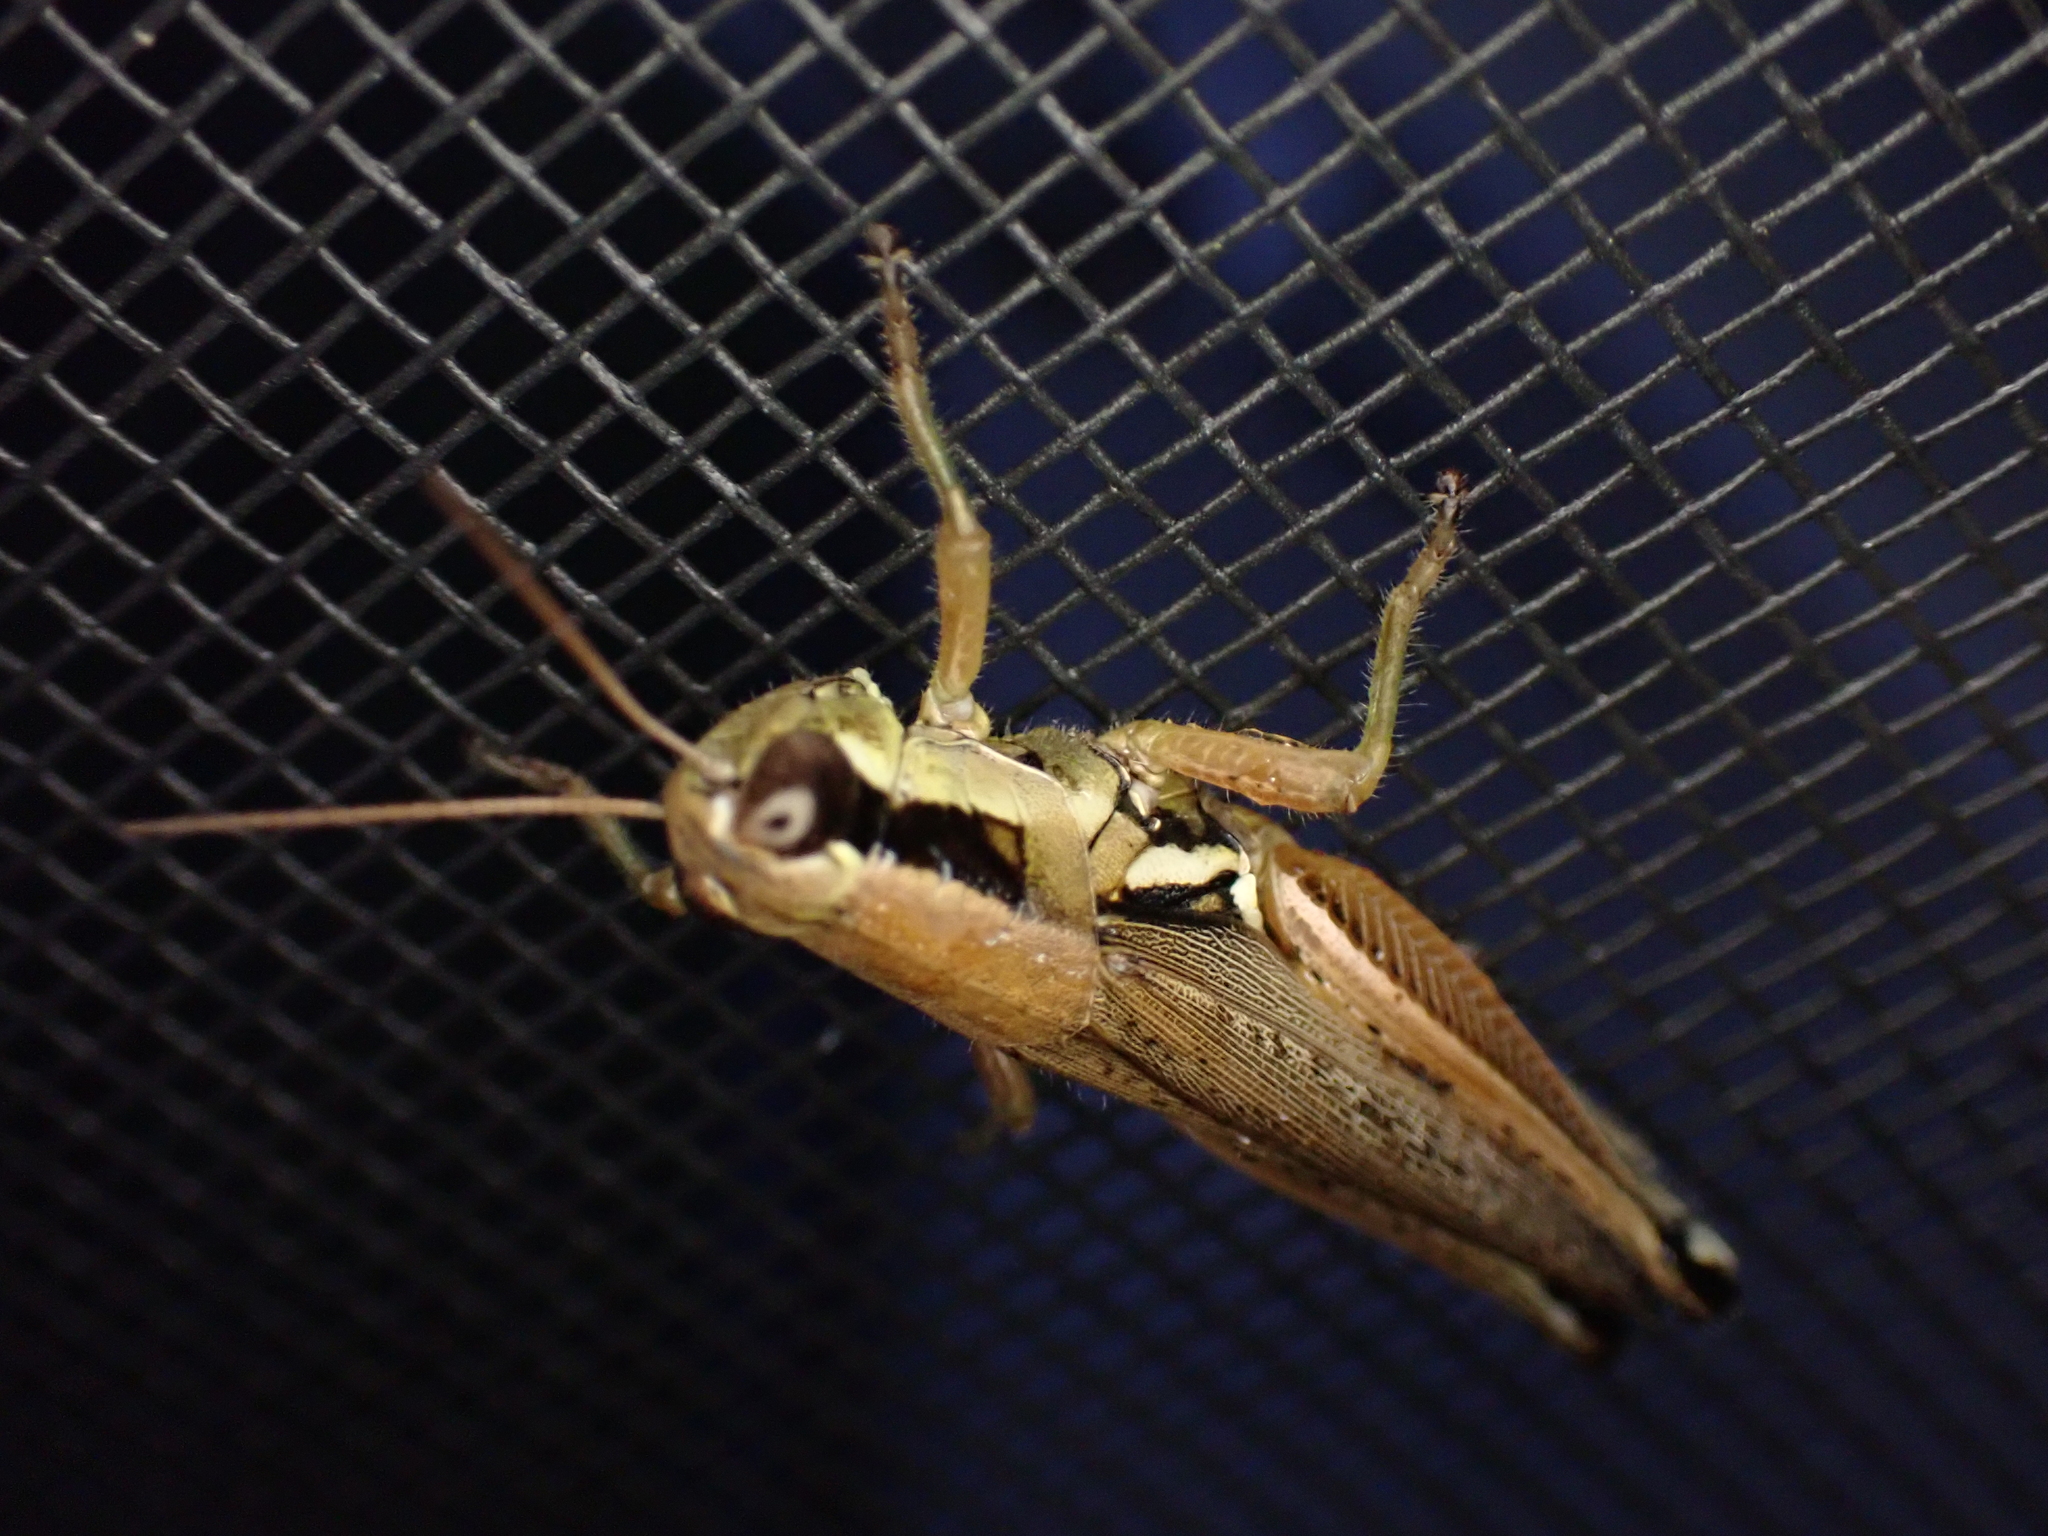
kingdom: Animalia
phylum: Arthropoda
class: Insecta
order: Orthoptera
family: Acrididae
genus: Paroxya
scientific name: Paroxya atlantica
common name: Atlantic grasshopper
